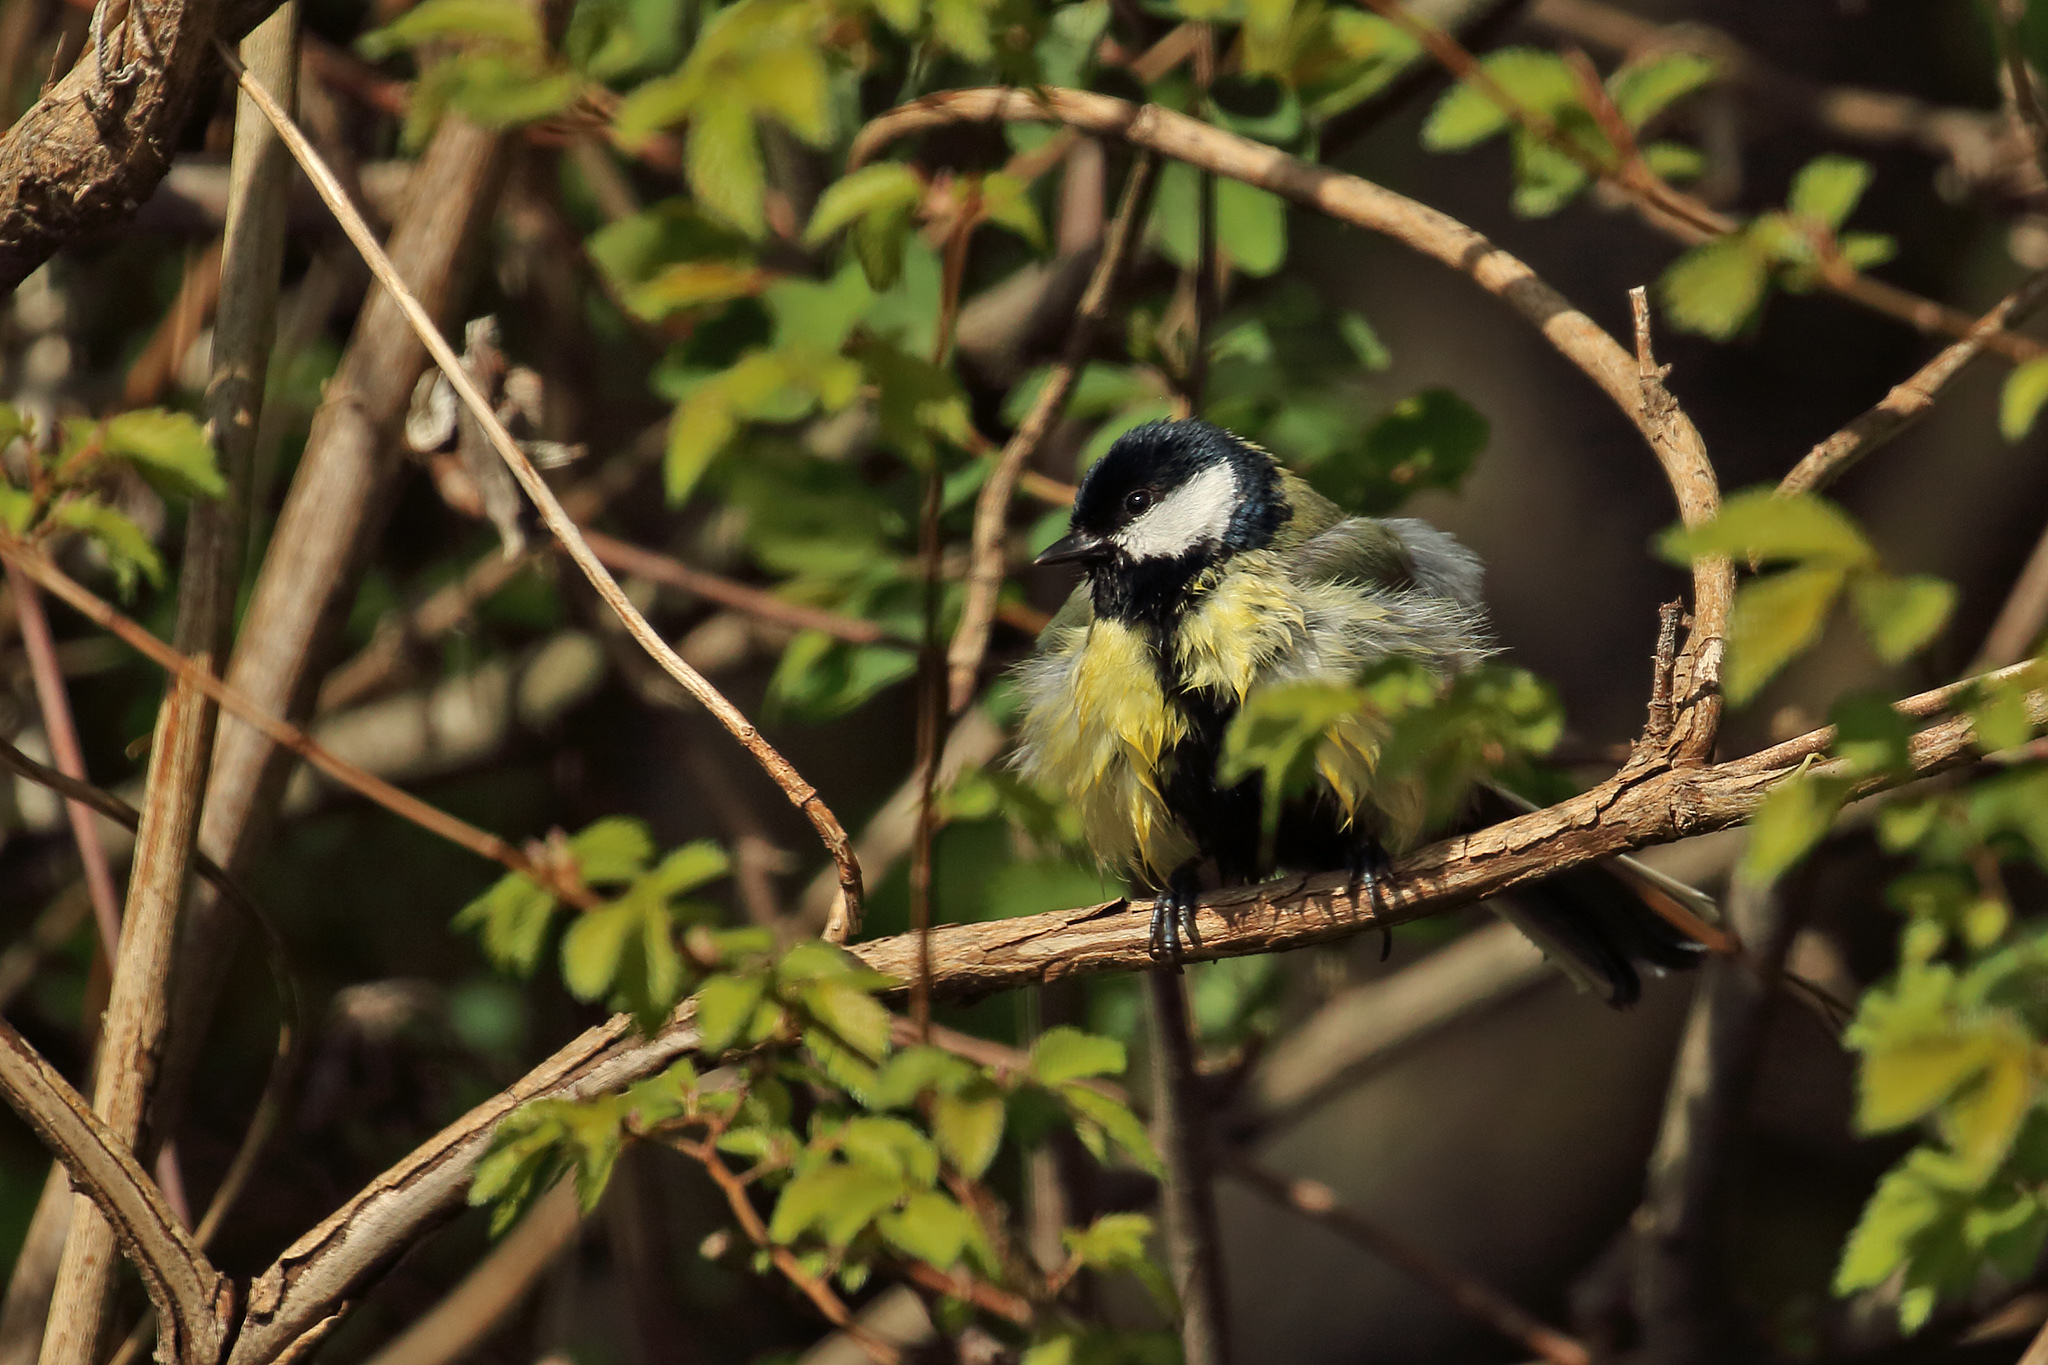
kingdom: Animalia
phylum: Chordata
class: Aves
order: Passeriformes
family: Paridae
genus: Parus
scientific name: Parus major
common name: Great tit
